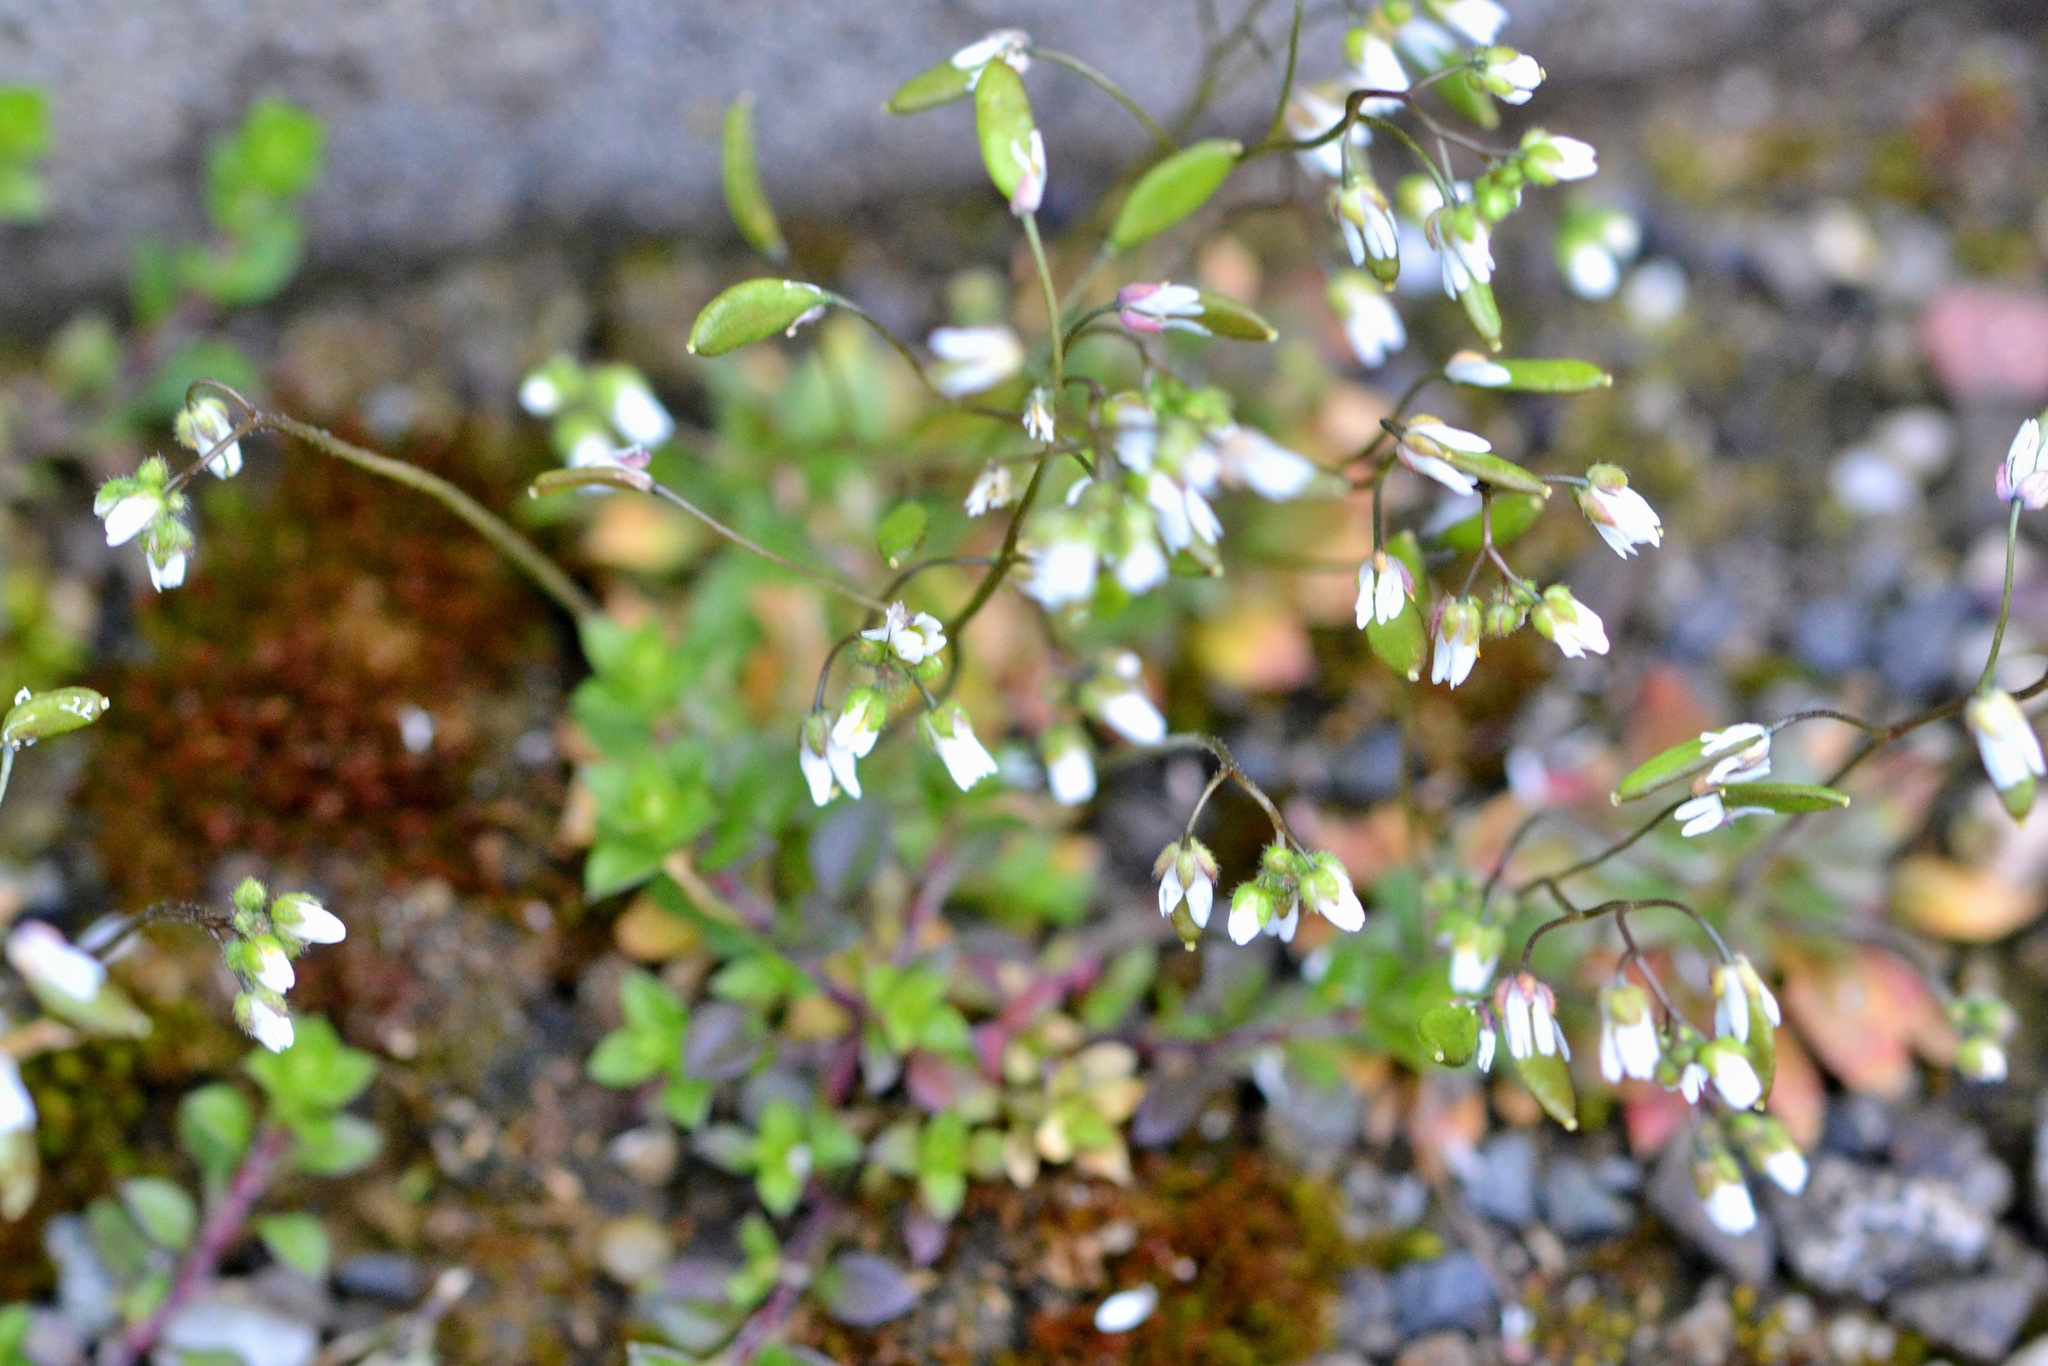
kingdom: Plantae
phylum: Tracheophyta
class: Magnoliopsida
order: Brassicales
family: Brassicaceae
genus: Draba
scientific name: Draba verna
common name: Spring draba
